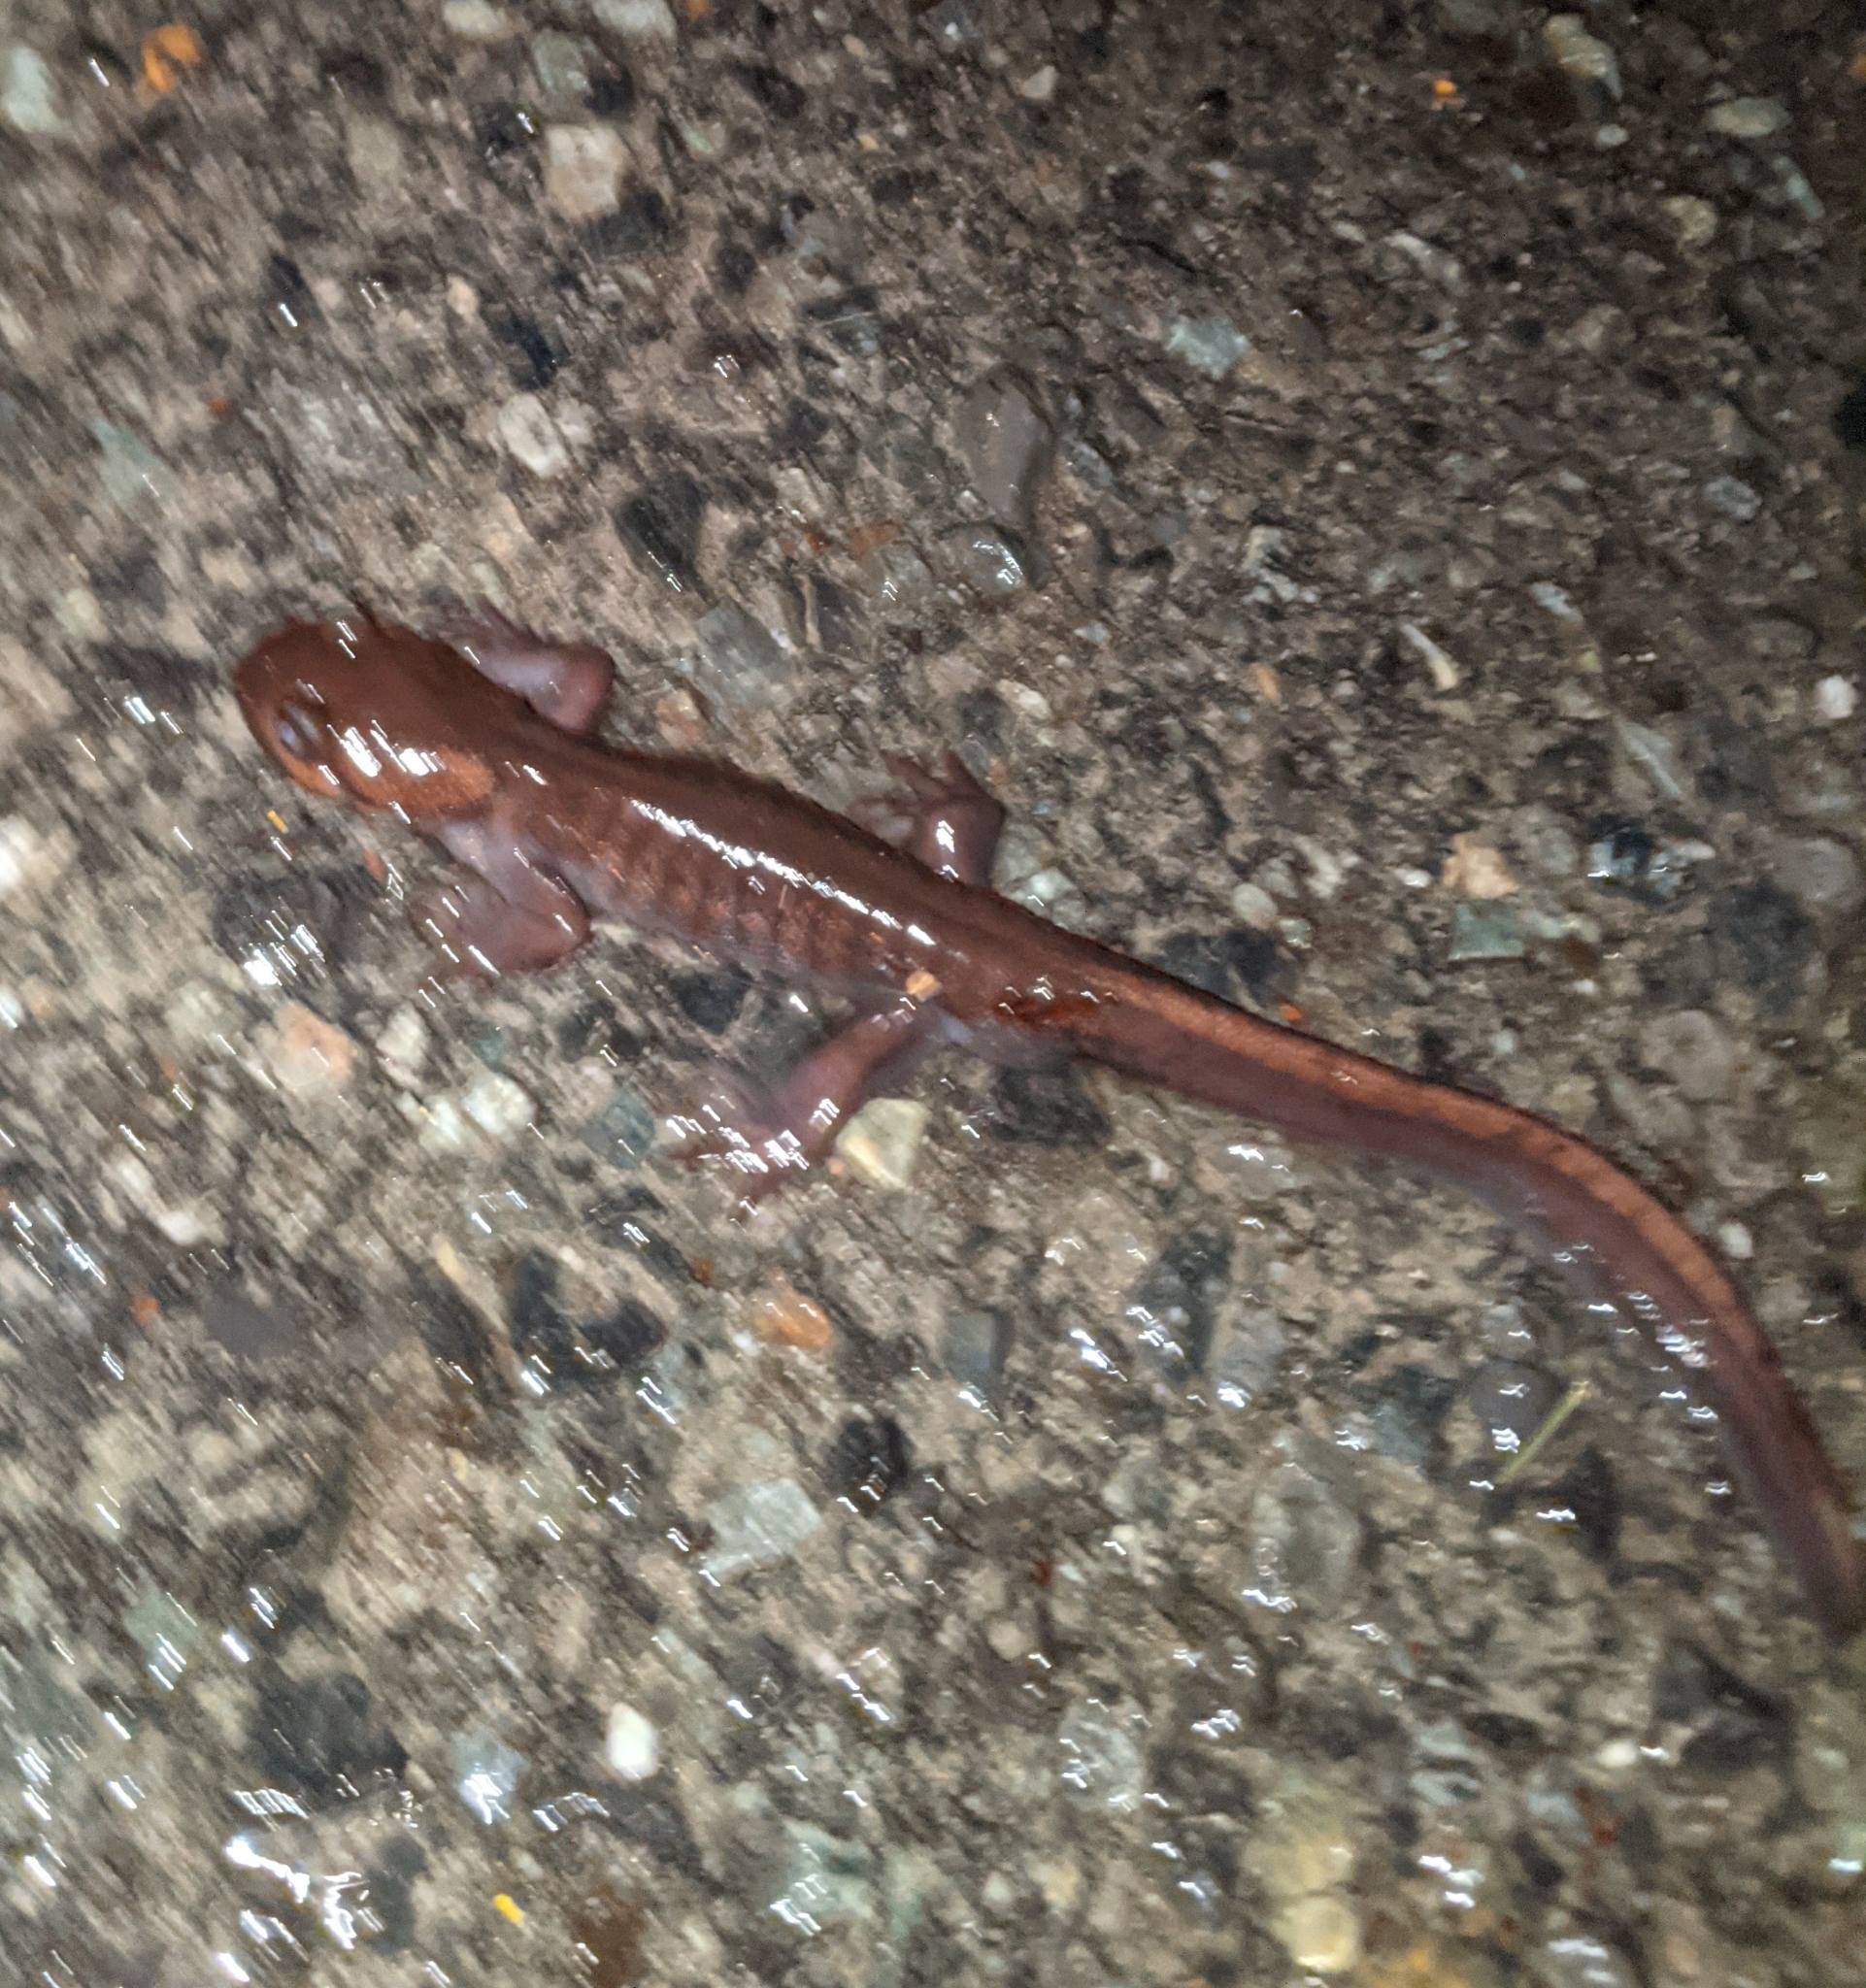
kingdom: Animalia
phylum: Chordata
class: Amphibia
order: Caudata
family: Ambystomatidae
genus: Ambystoma
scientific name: Ambystoma gracile
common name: Northwestern salamander
